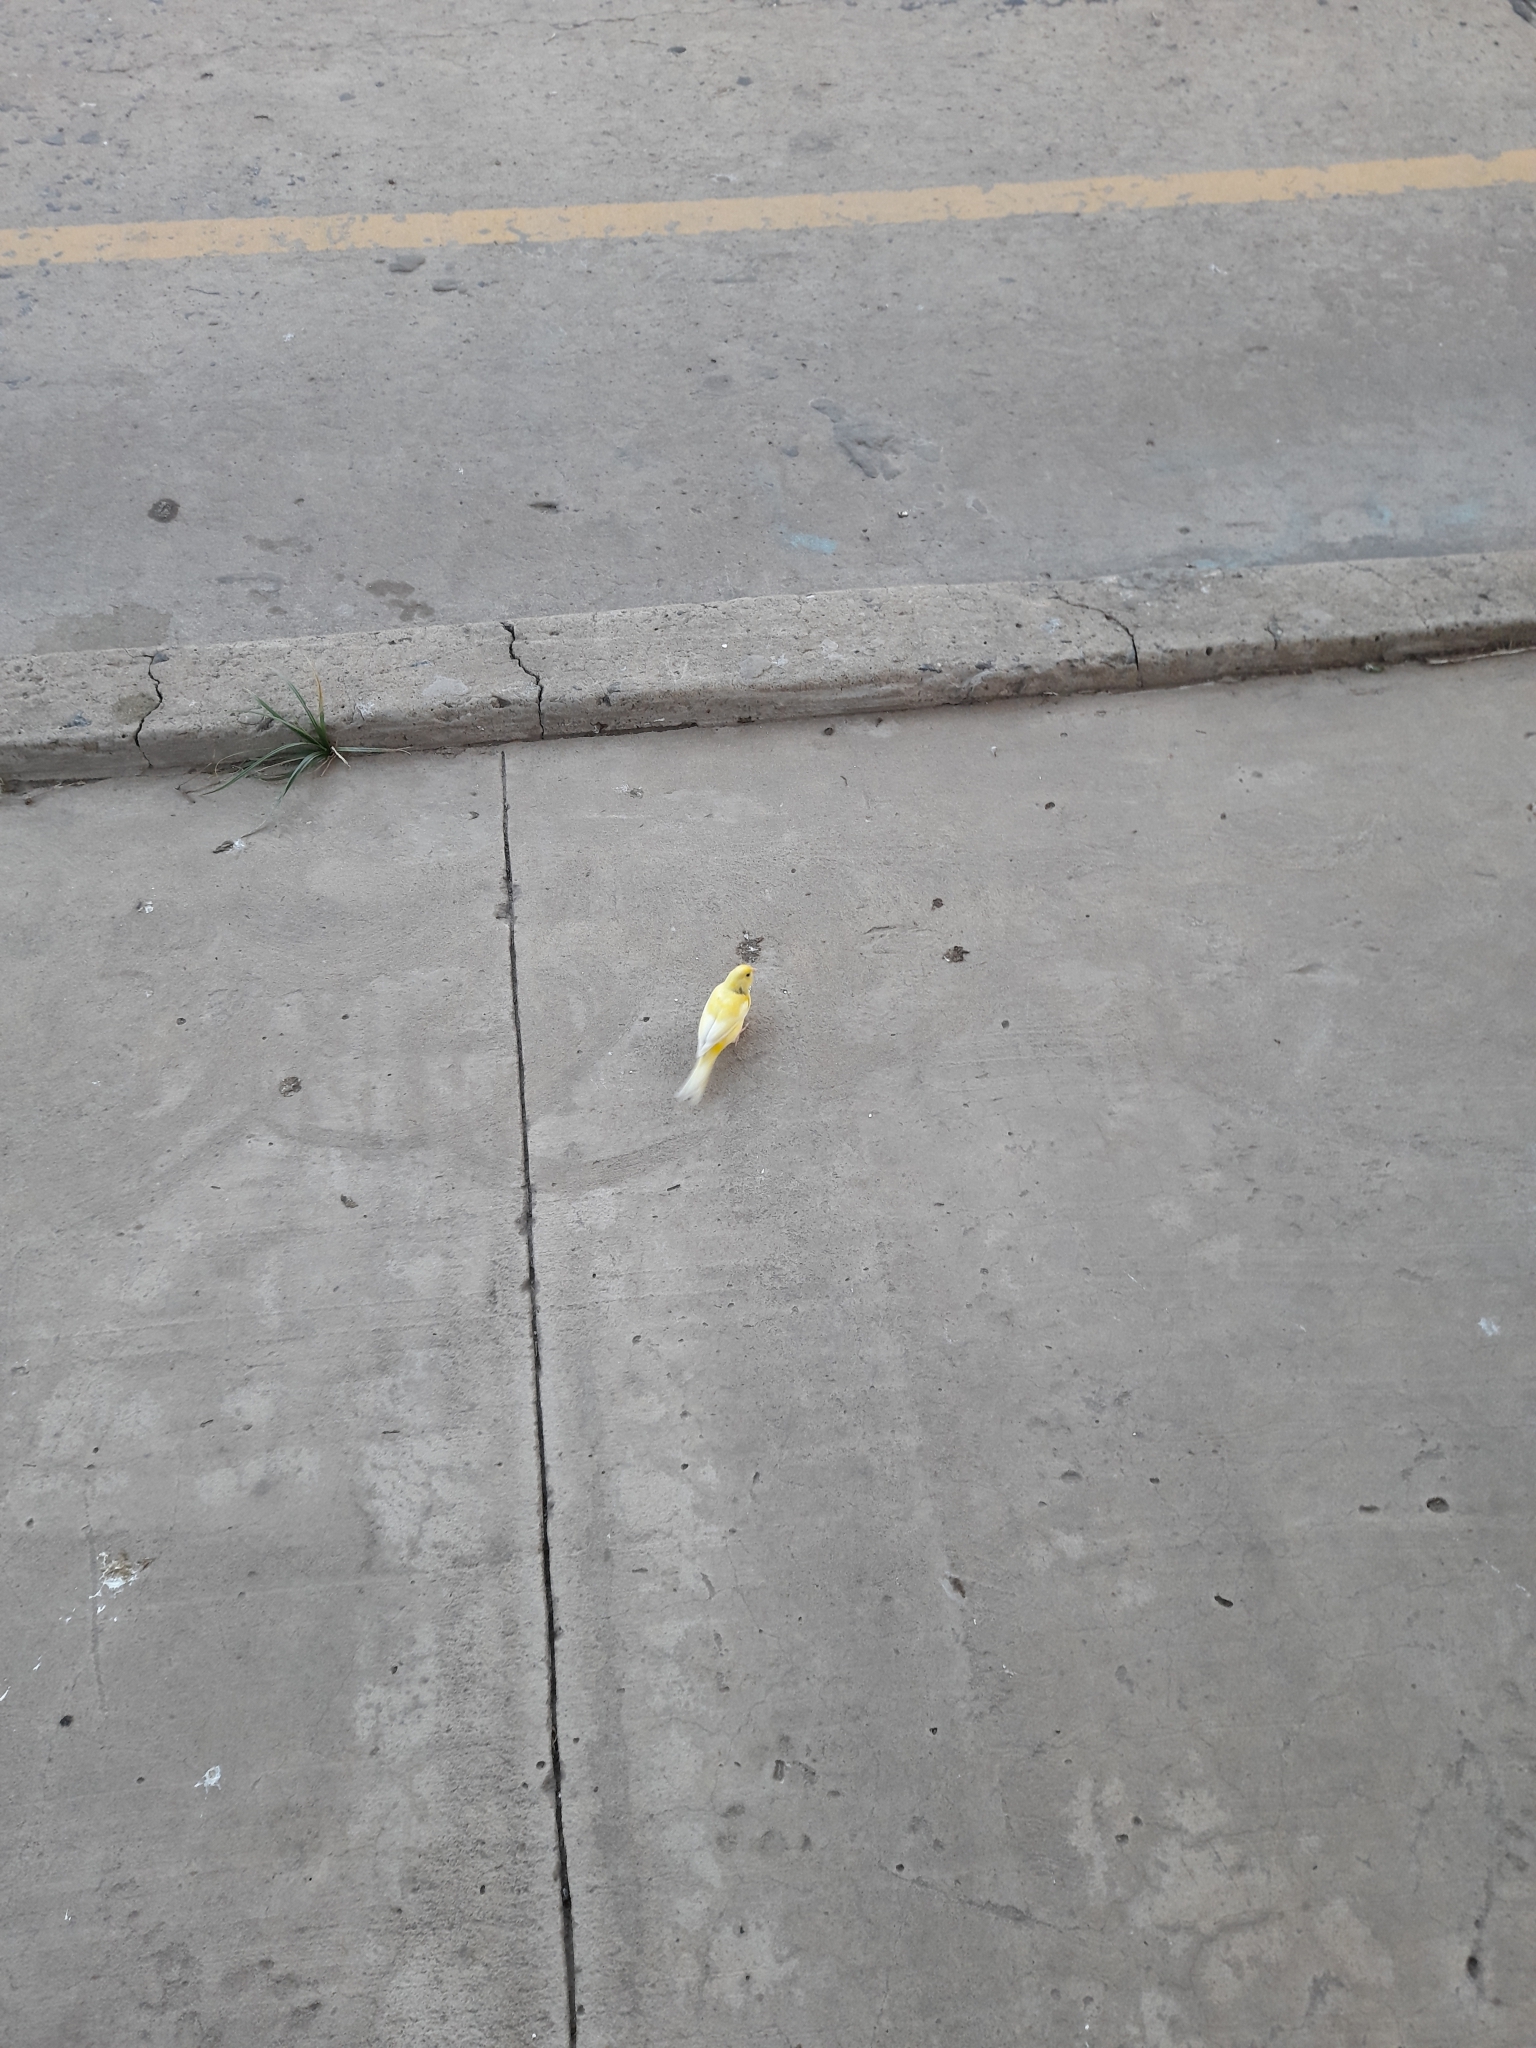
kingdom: Animalia
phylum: Chordata
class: Aves
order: Passeriformes
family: Fringillidae
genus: Serinus
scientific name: Serinus canaria
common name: Atlantic canary
